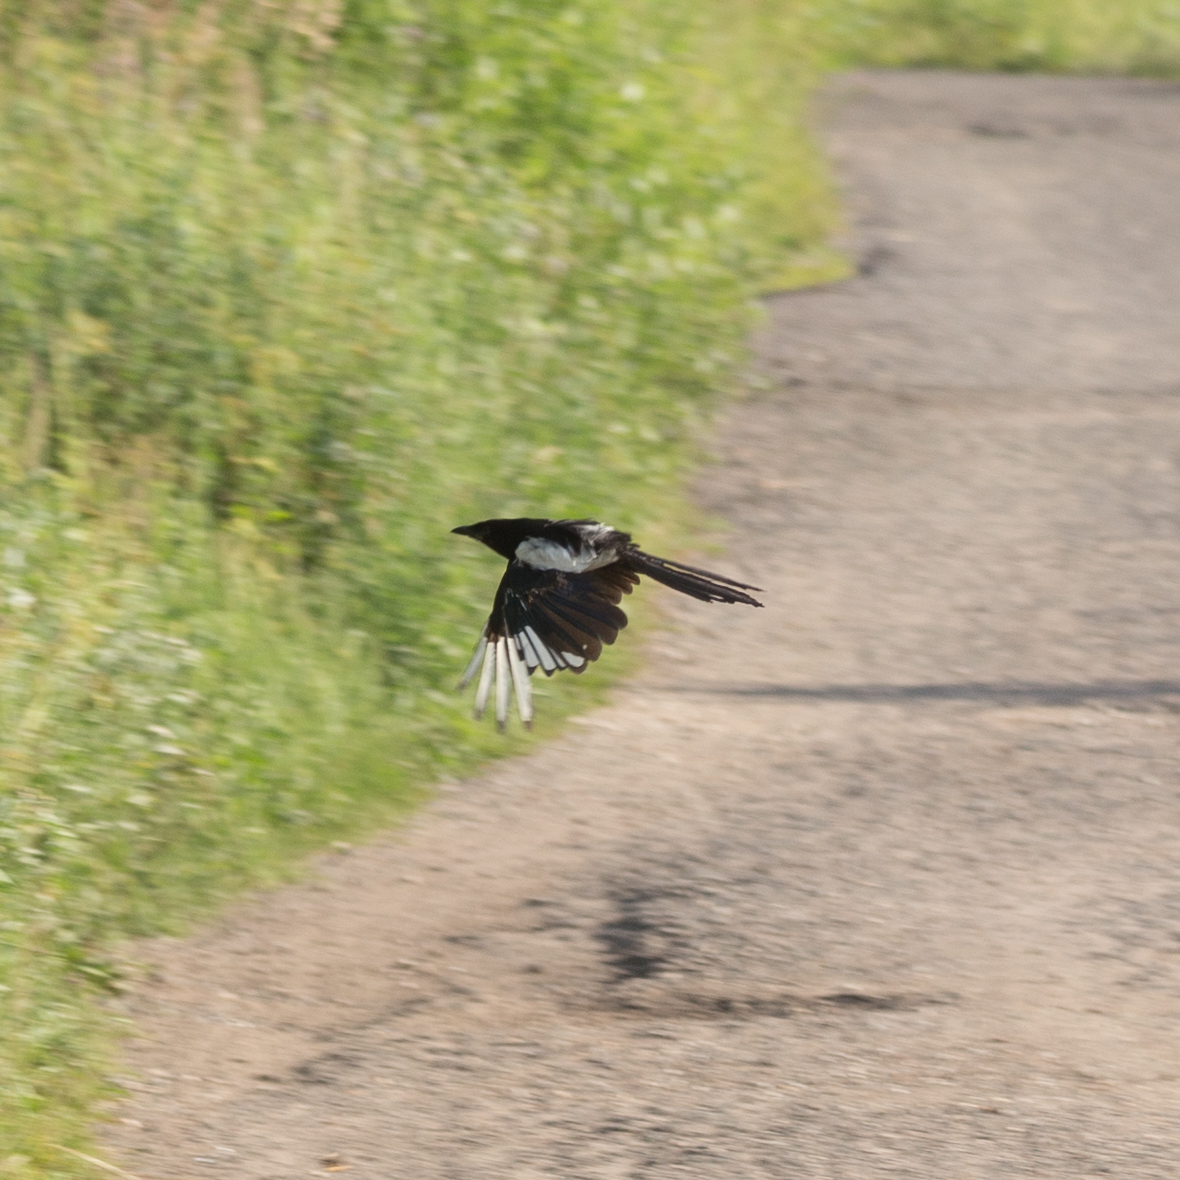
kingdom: Animalia
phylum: Chordata
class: Aves
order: Passeriformes
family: Corvidae
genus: Pica
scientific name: Pica pica
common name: Eurasian magpie
